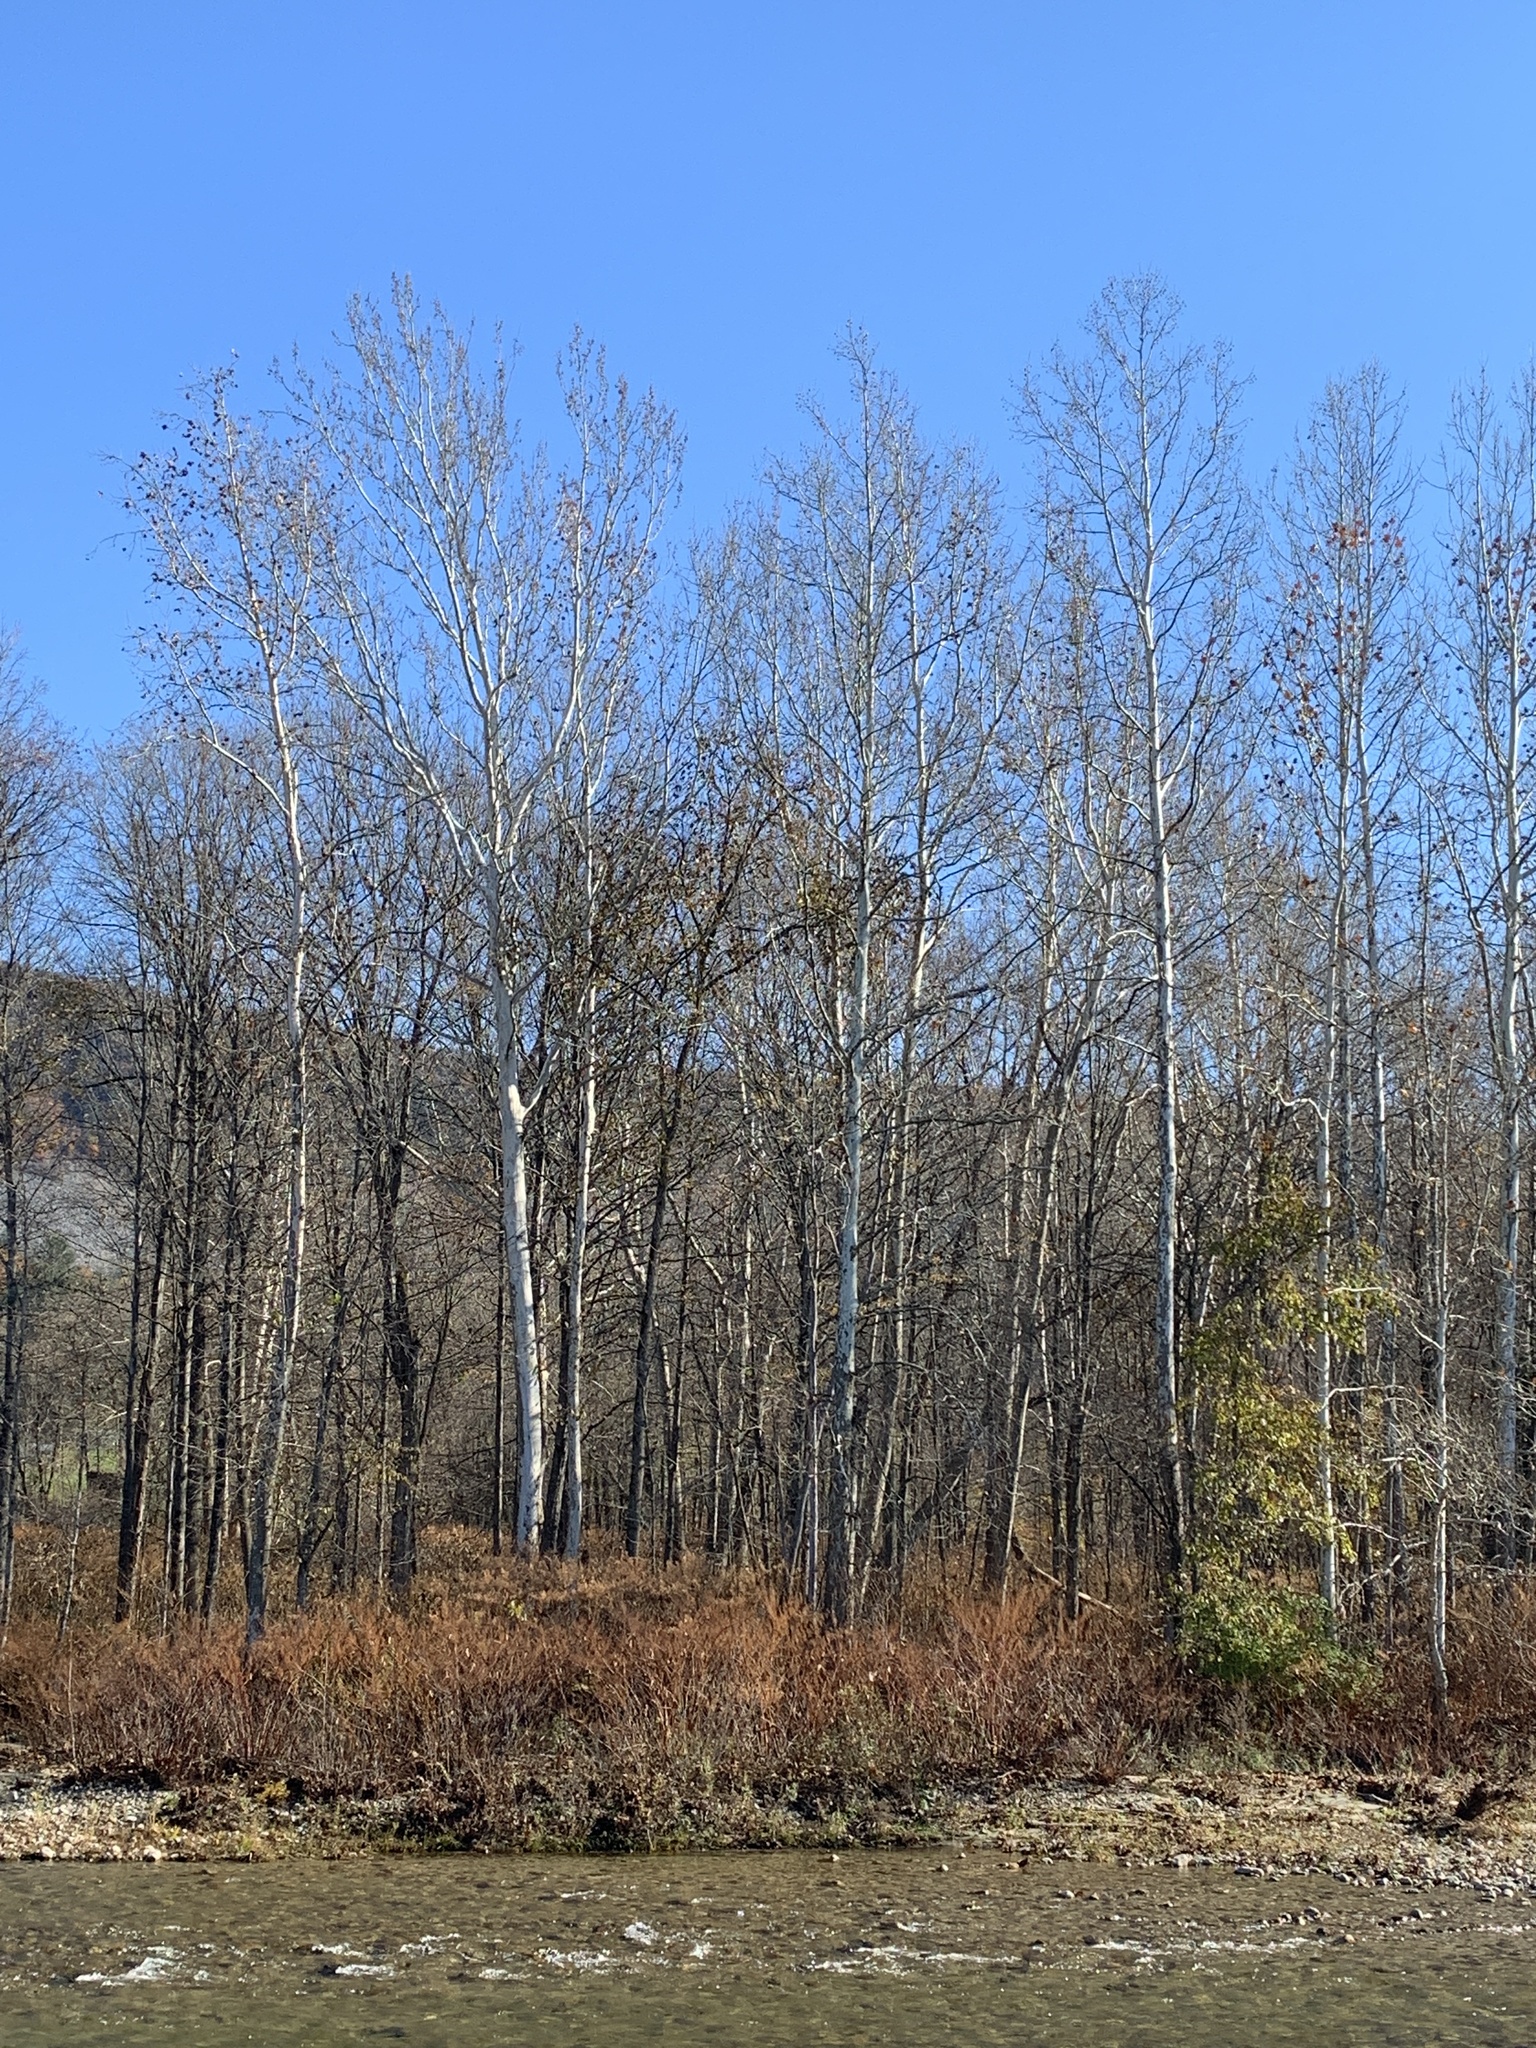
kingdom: Plantae
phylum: Tracheophyta
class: Magnoliopsida
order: Proteales
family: Platanaceae
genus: Platanus
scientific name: Platanus occidentalis
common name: American sycamore
